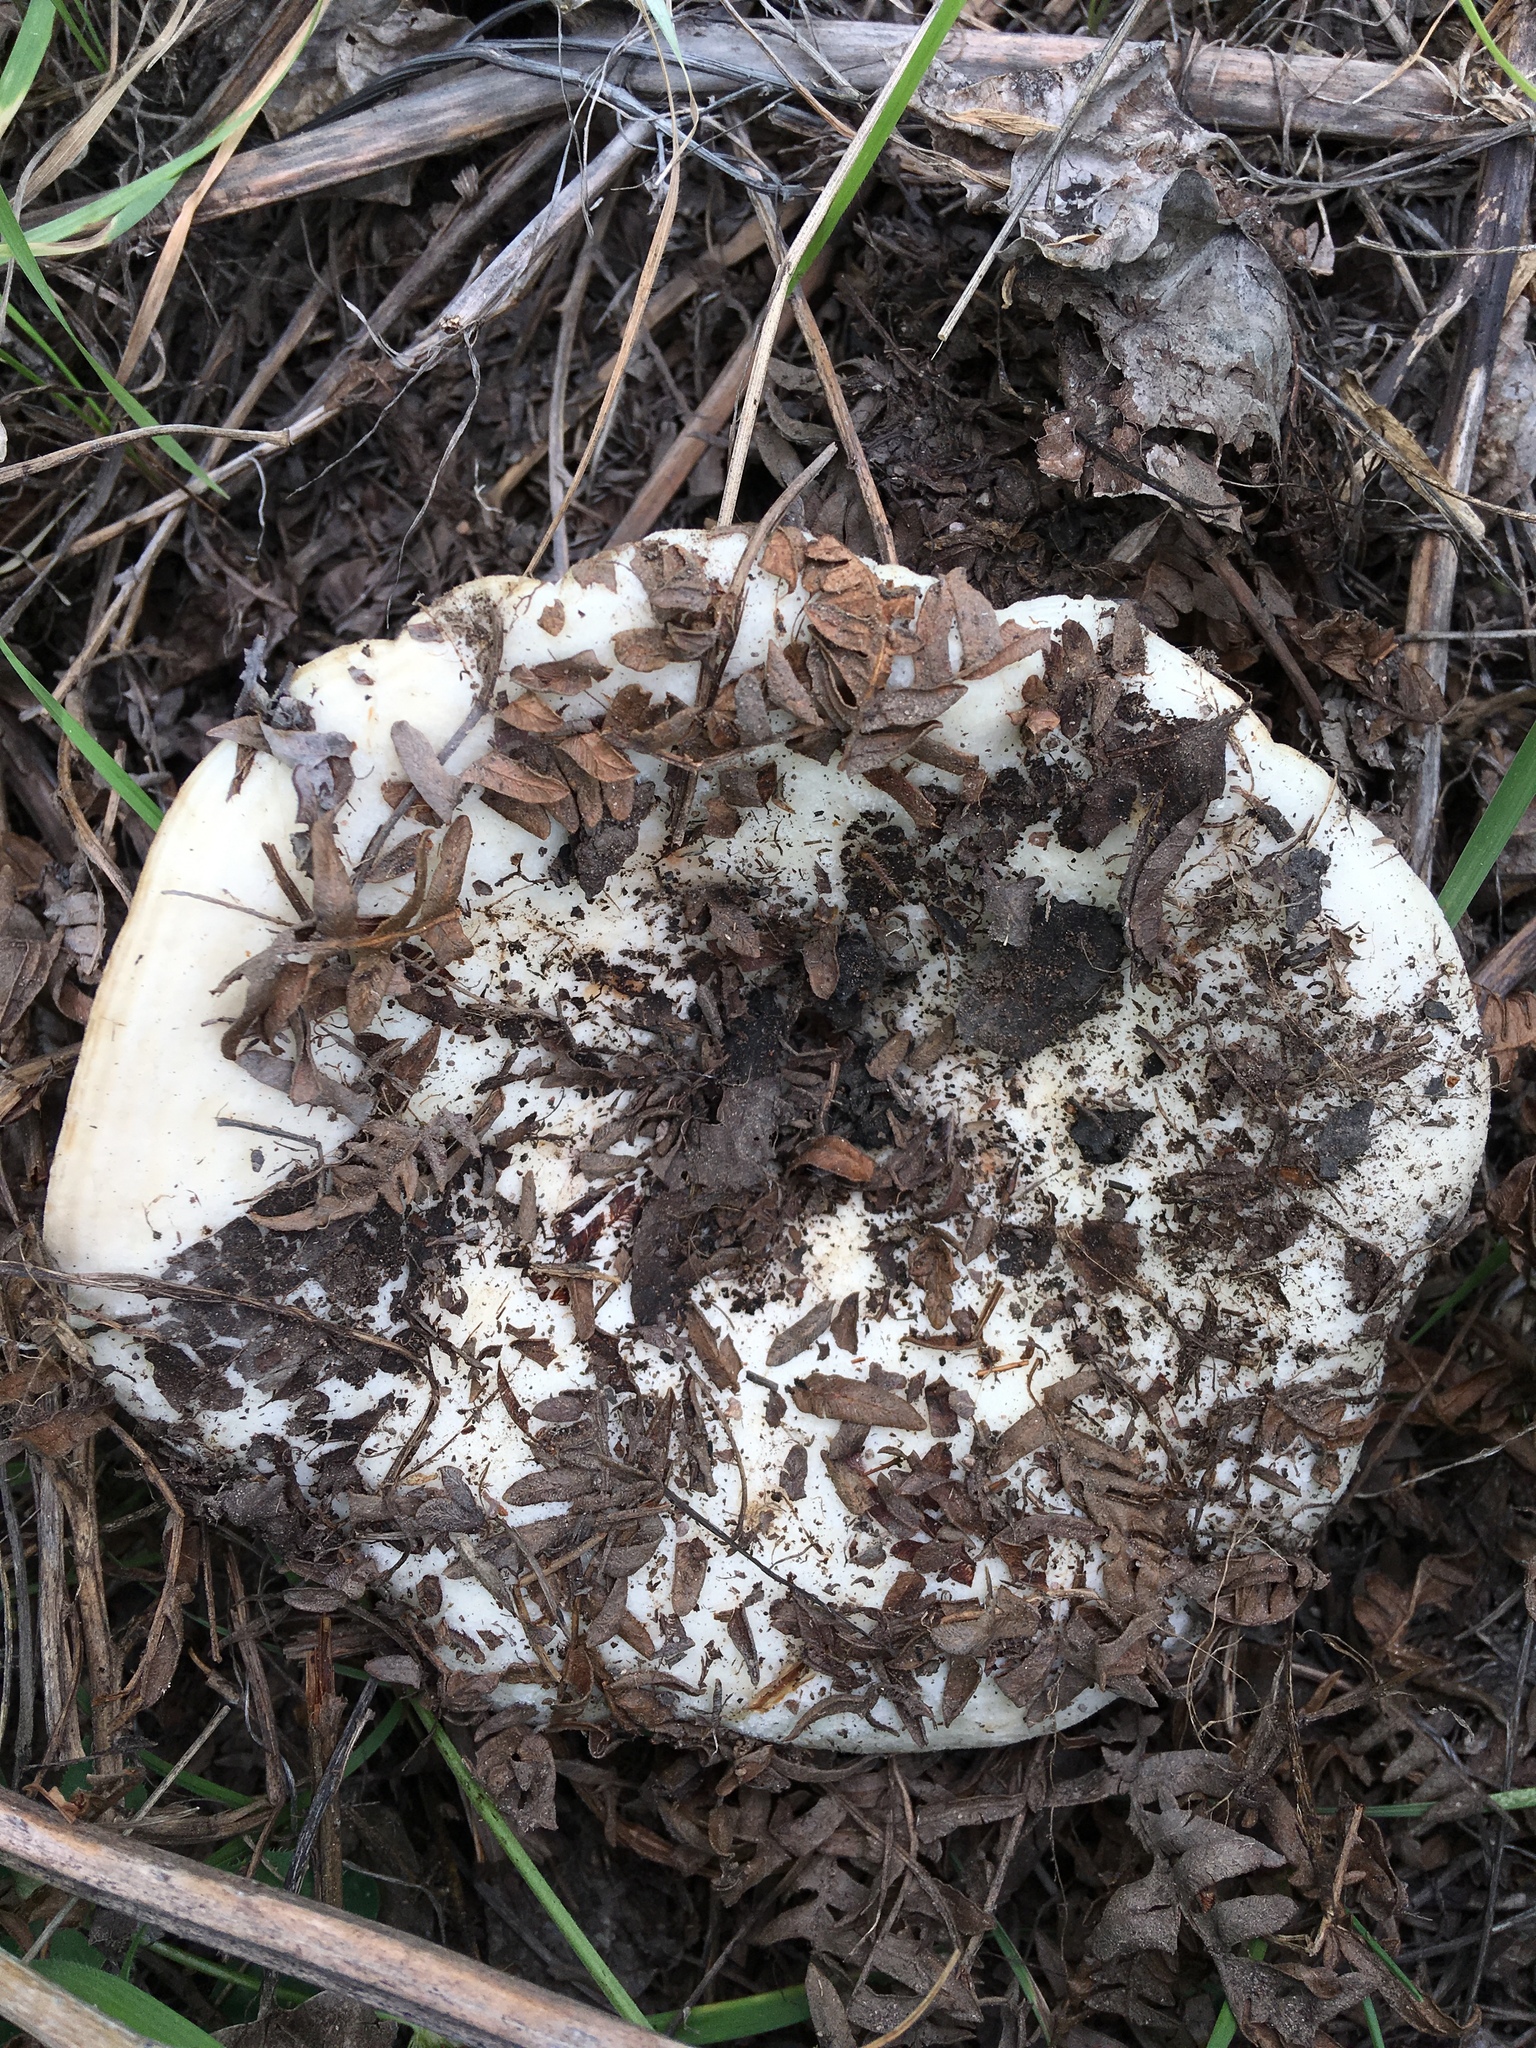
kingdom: Fungi
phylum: Basidiomycota
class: Agaricomycetes
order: Russulales
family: Russulaceae
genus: Lactarius
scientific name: Lactarius controversus
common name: Blushing milkcap
